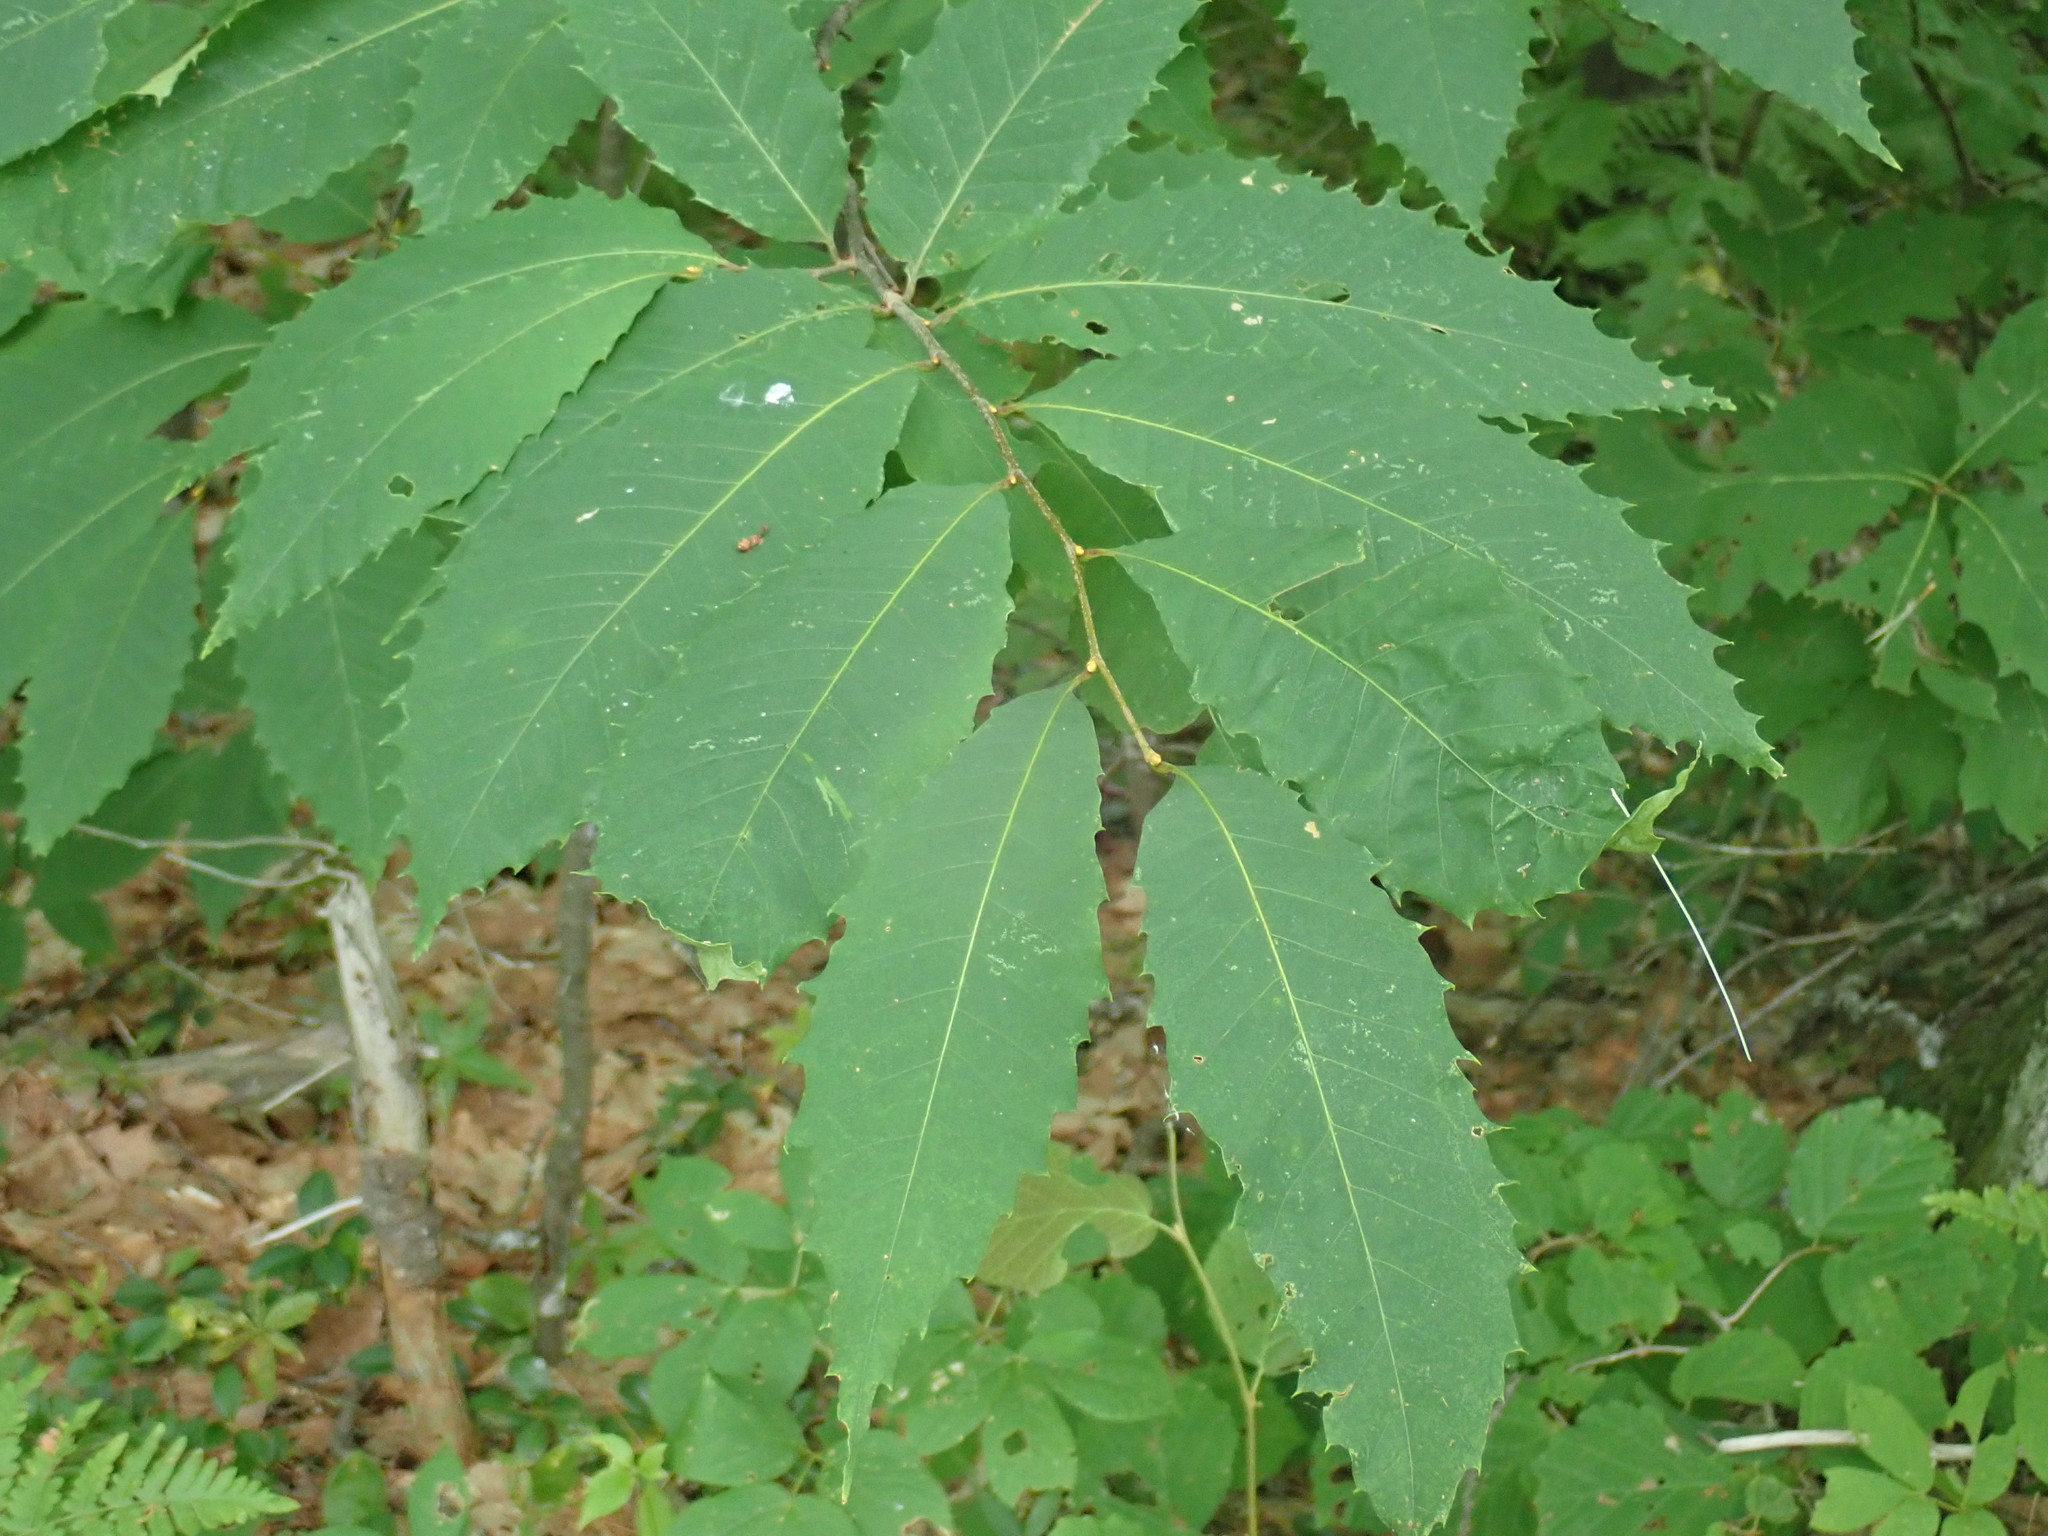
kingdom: Plantae
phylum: Tracheophyta
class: Magnoliopsida
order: Fagales
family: Fagaceae
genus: Castanea
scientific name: Castanea dentata
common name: American chestnut
